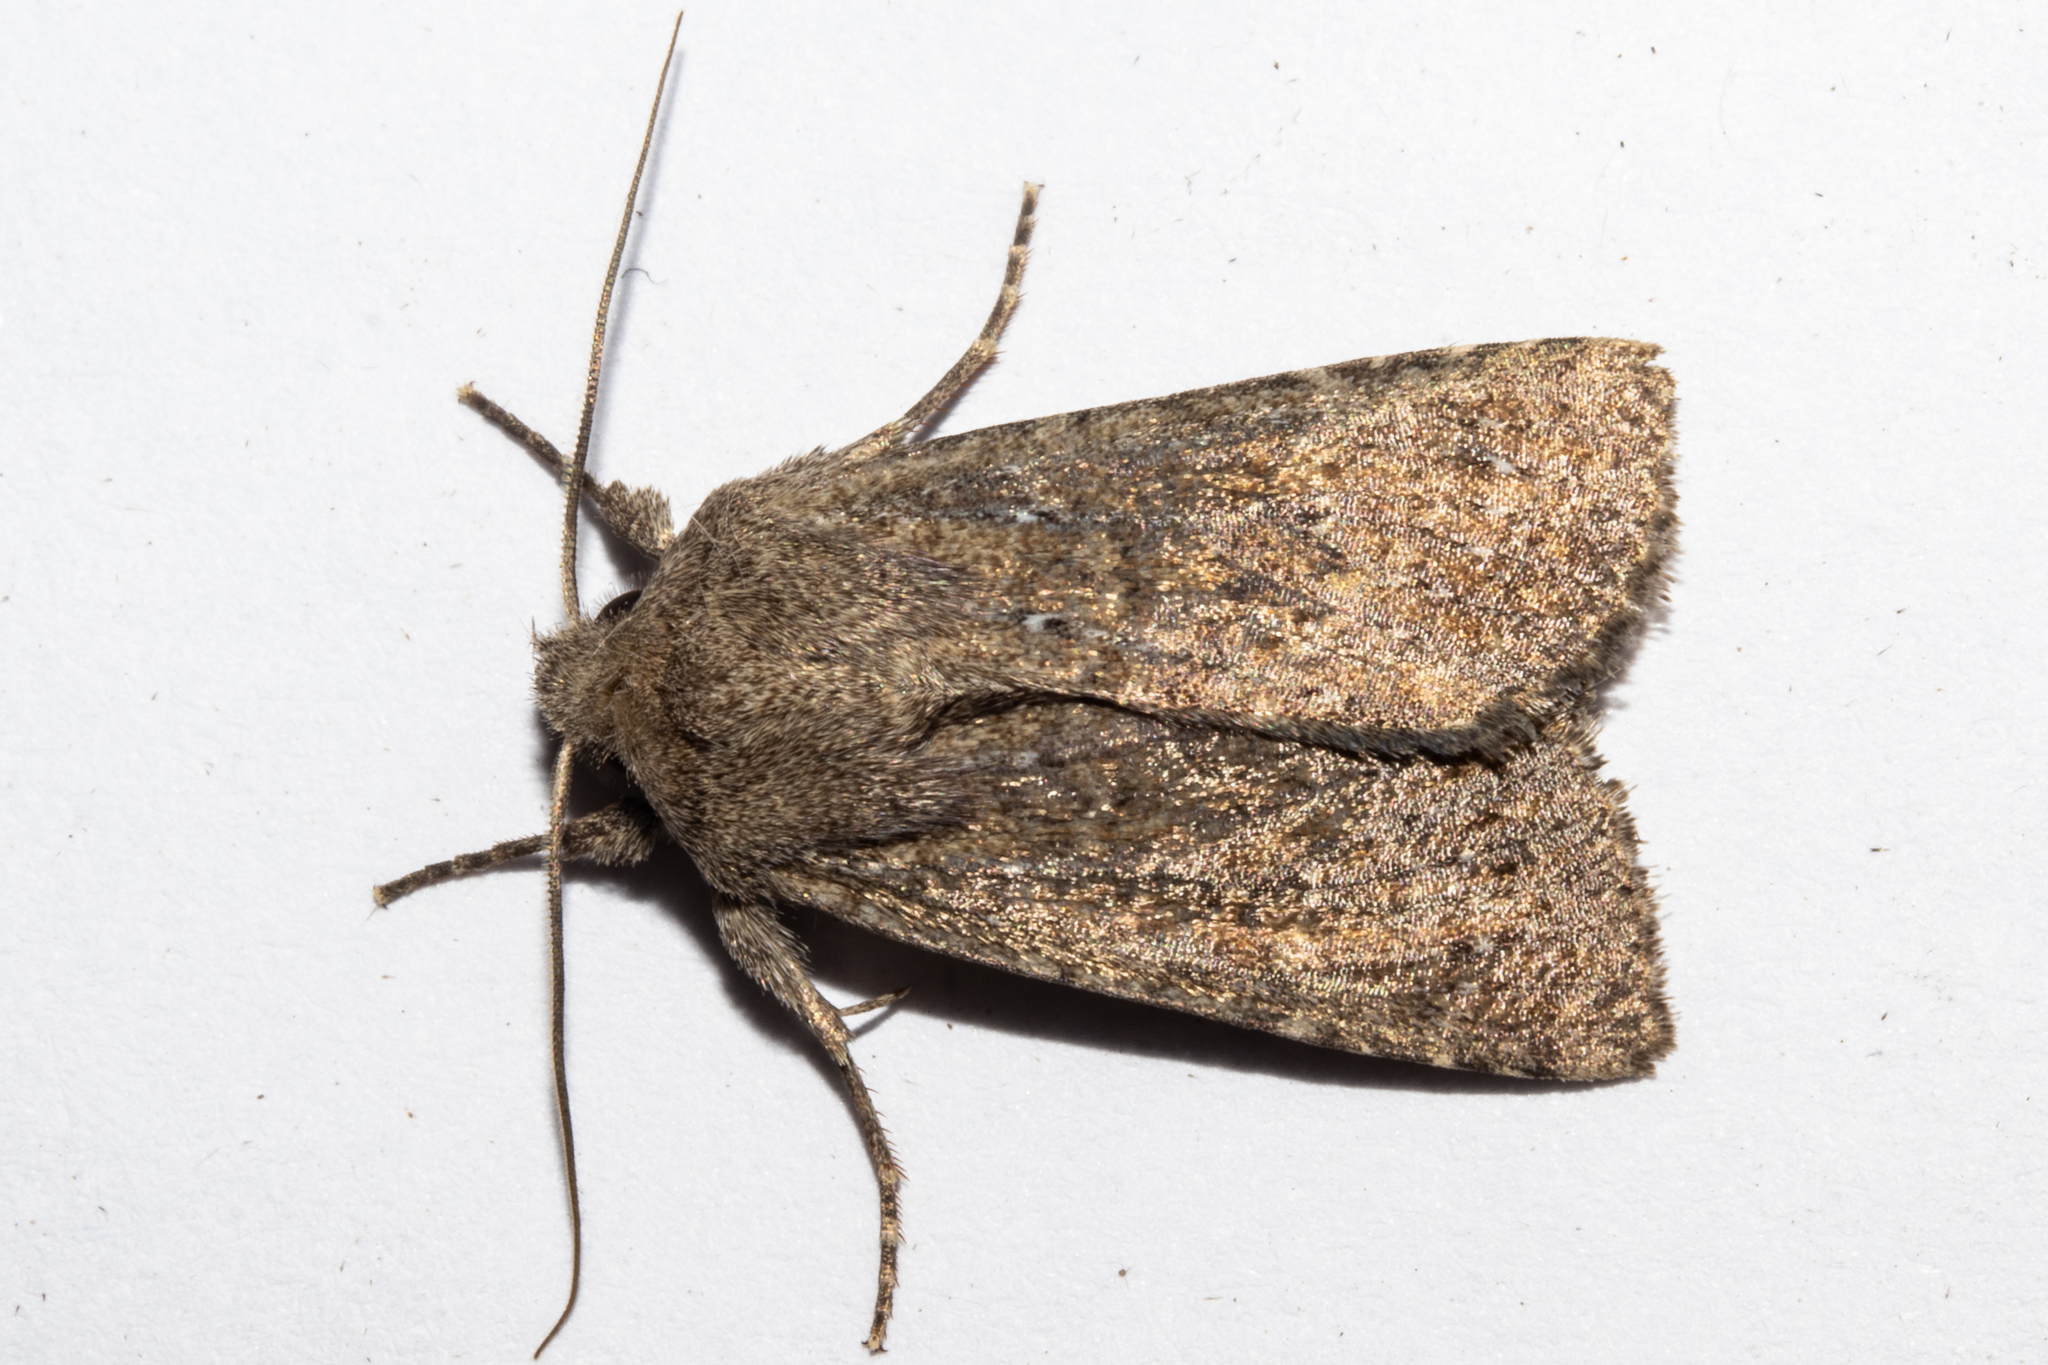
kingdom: Animalia
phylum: Arthropoda
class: Insecta
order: Lepidoptera
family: Noctuidae
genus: Physetica
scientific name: Physetica
